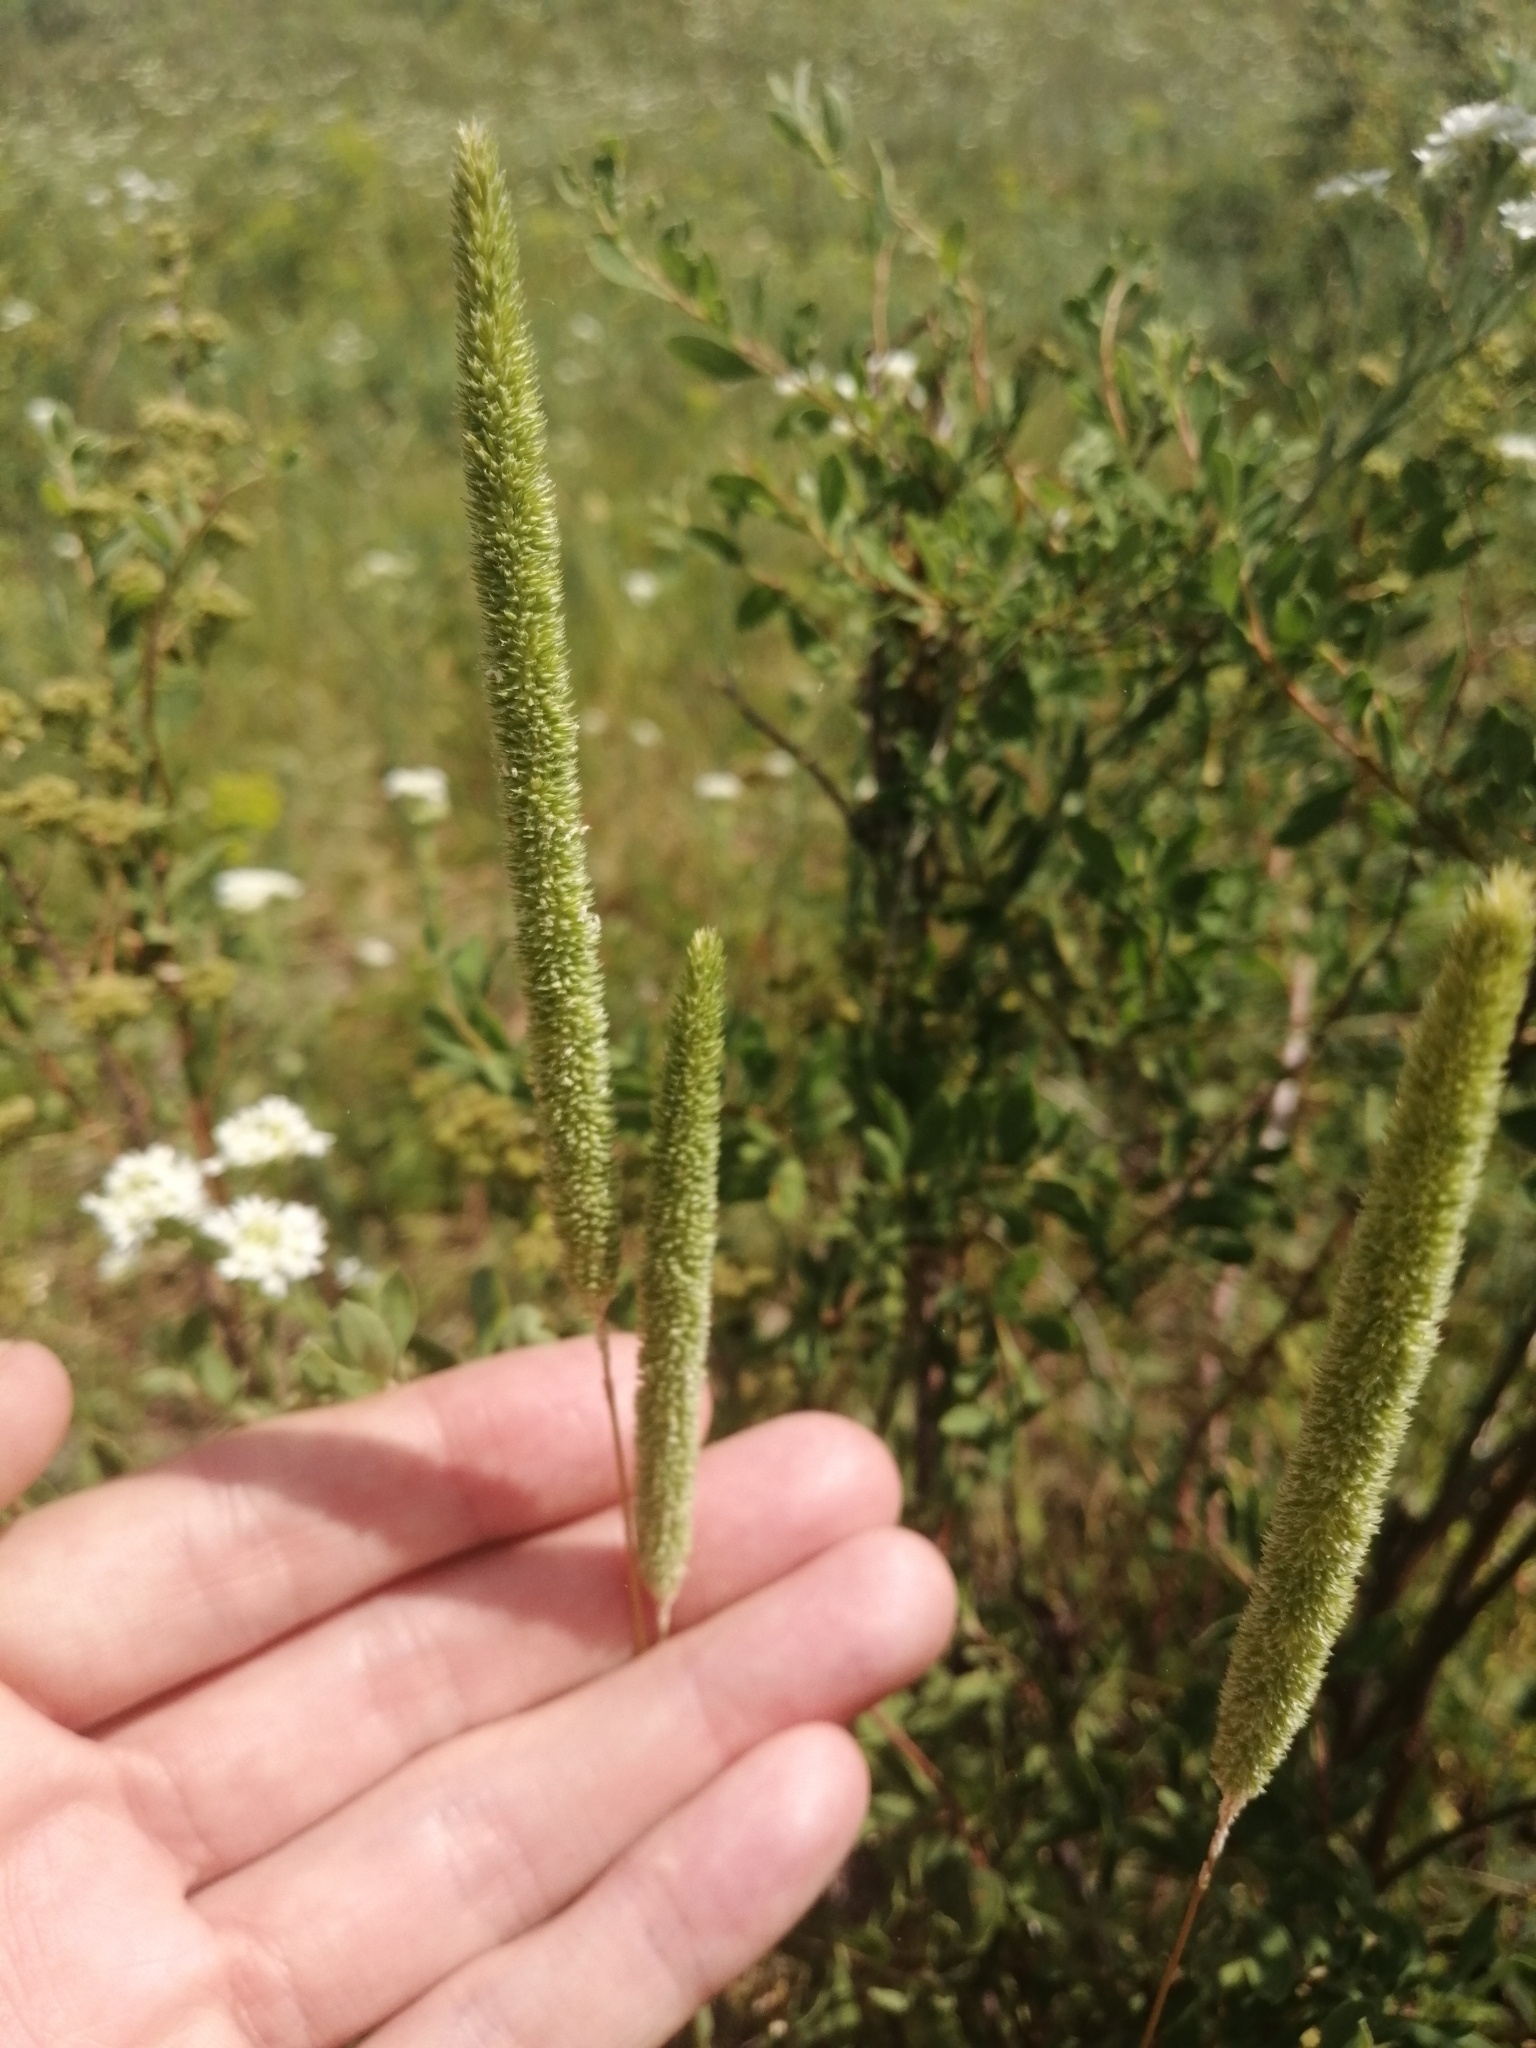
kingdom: Plantae
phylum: Tracheophyta
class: Liliopsida
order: Poales
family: Poaceae
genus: Phleum
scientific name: Phleum phleoides
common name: Purple-stem cat's-tail
